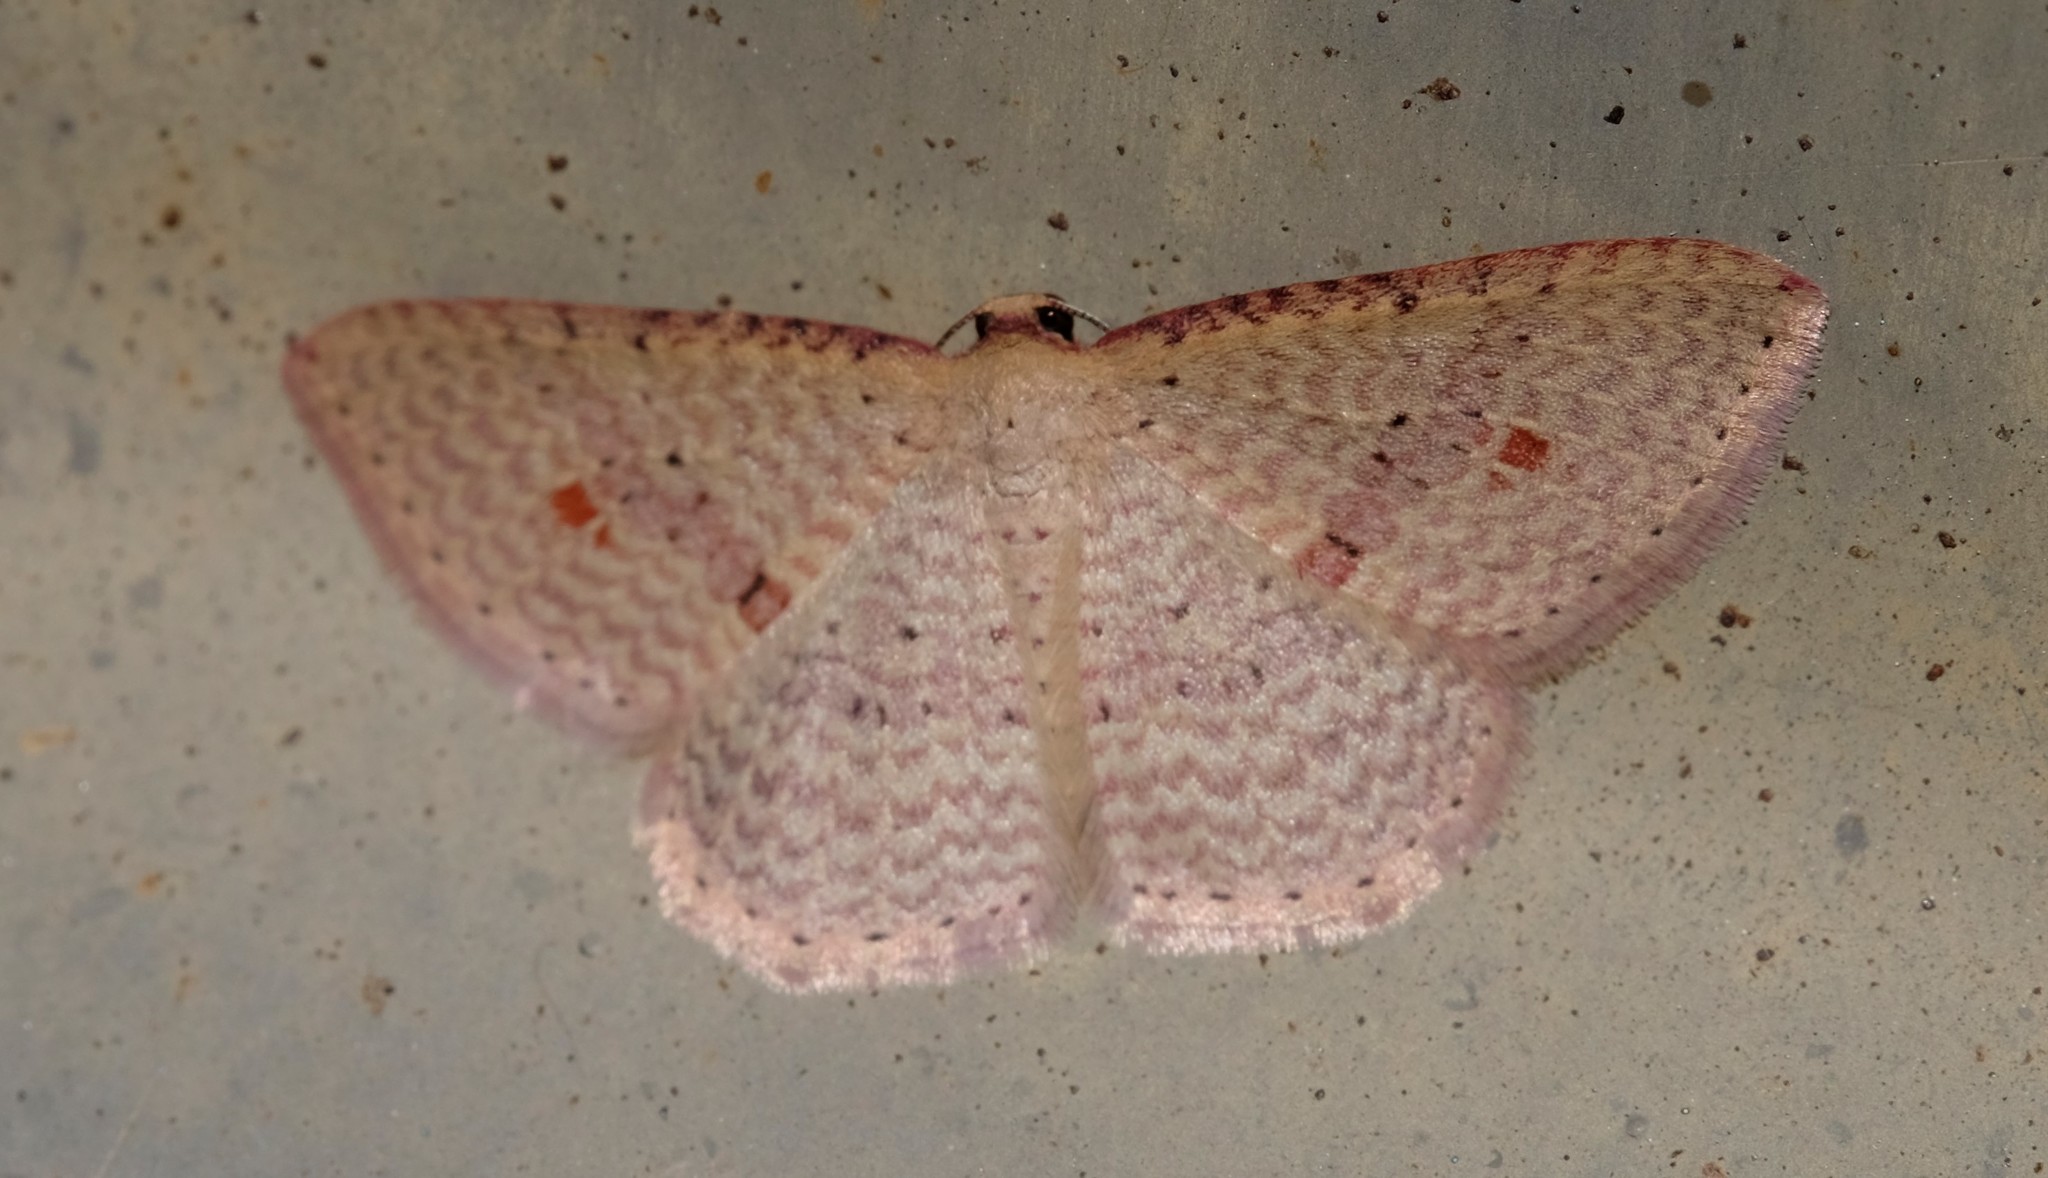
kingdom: Animalia
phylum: Arthropoda
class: Insecta
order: Lepidoptera
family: Geometridae
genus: Epicyme
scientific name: Epicyme rubropunctaria
